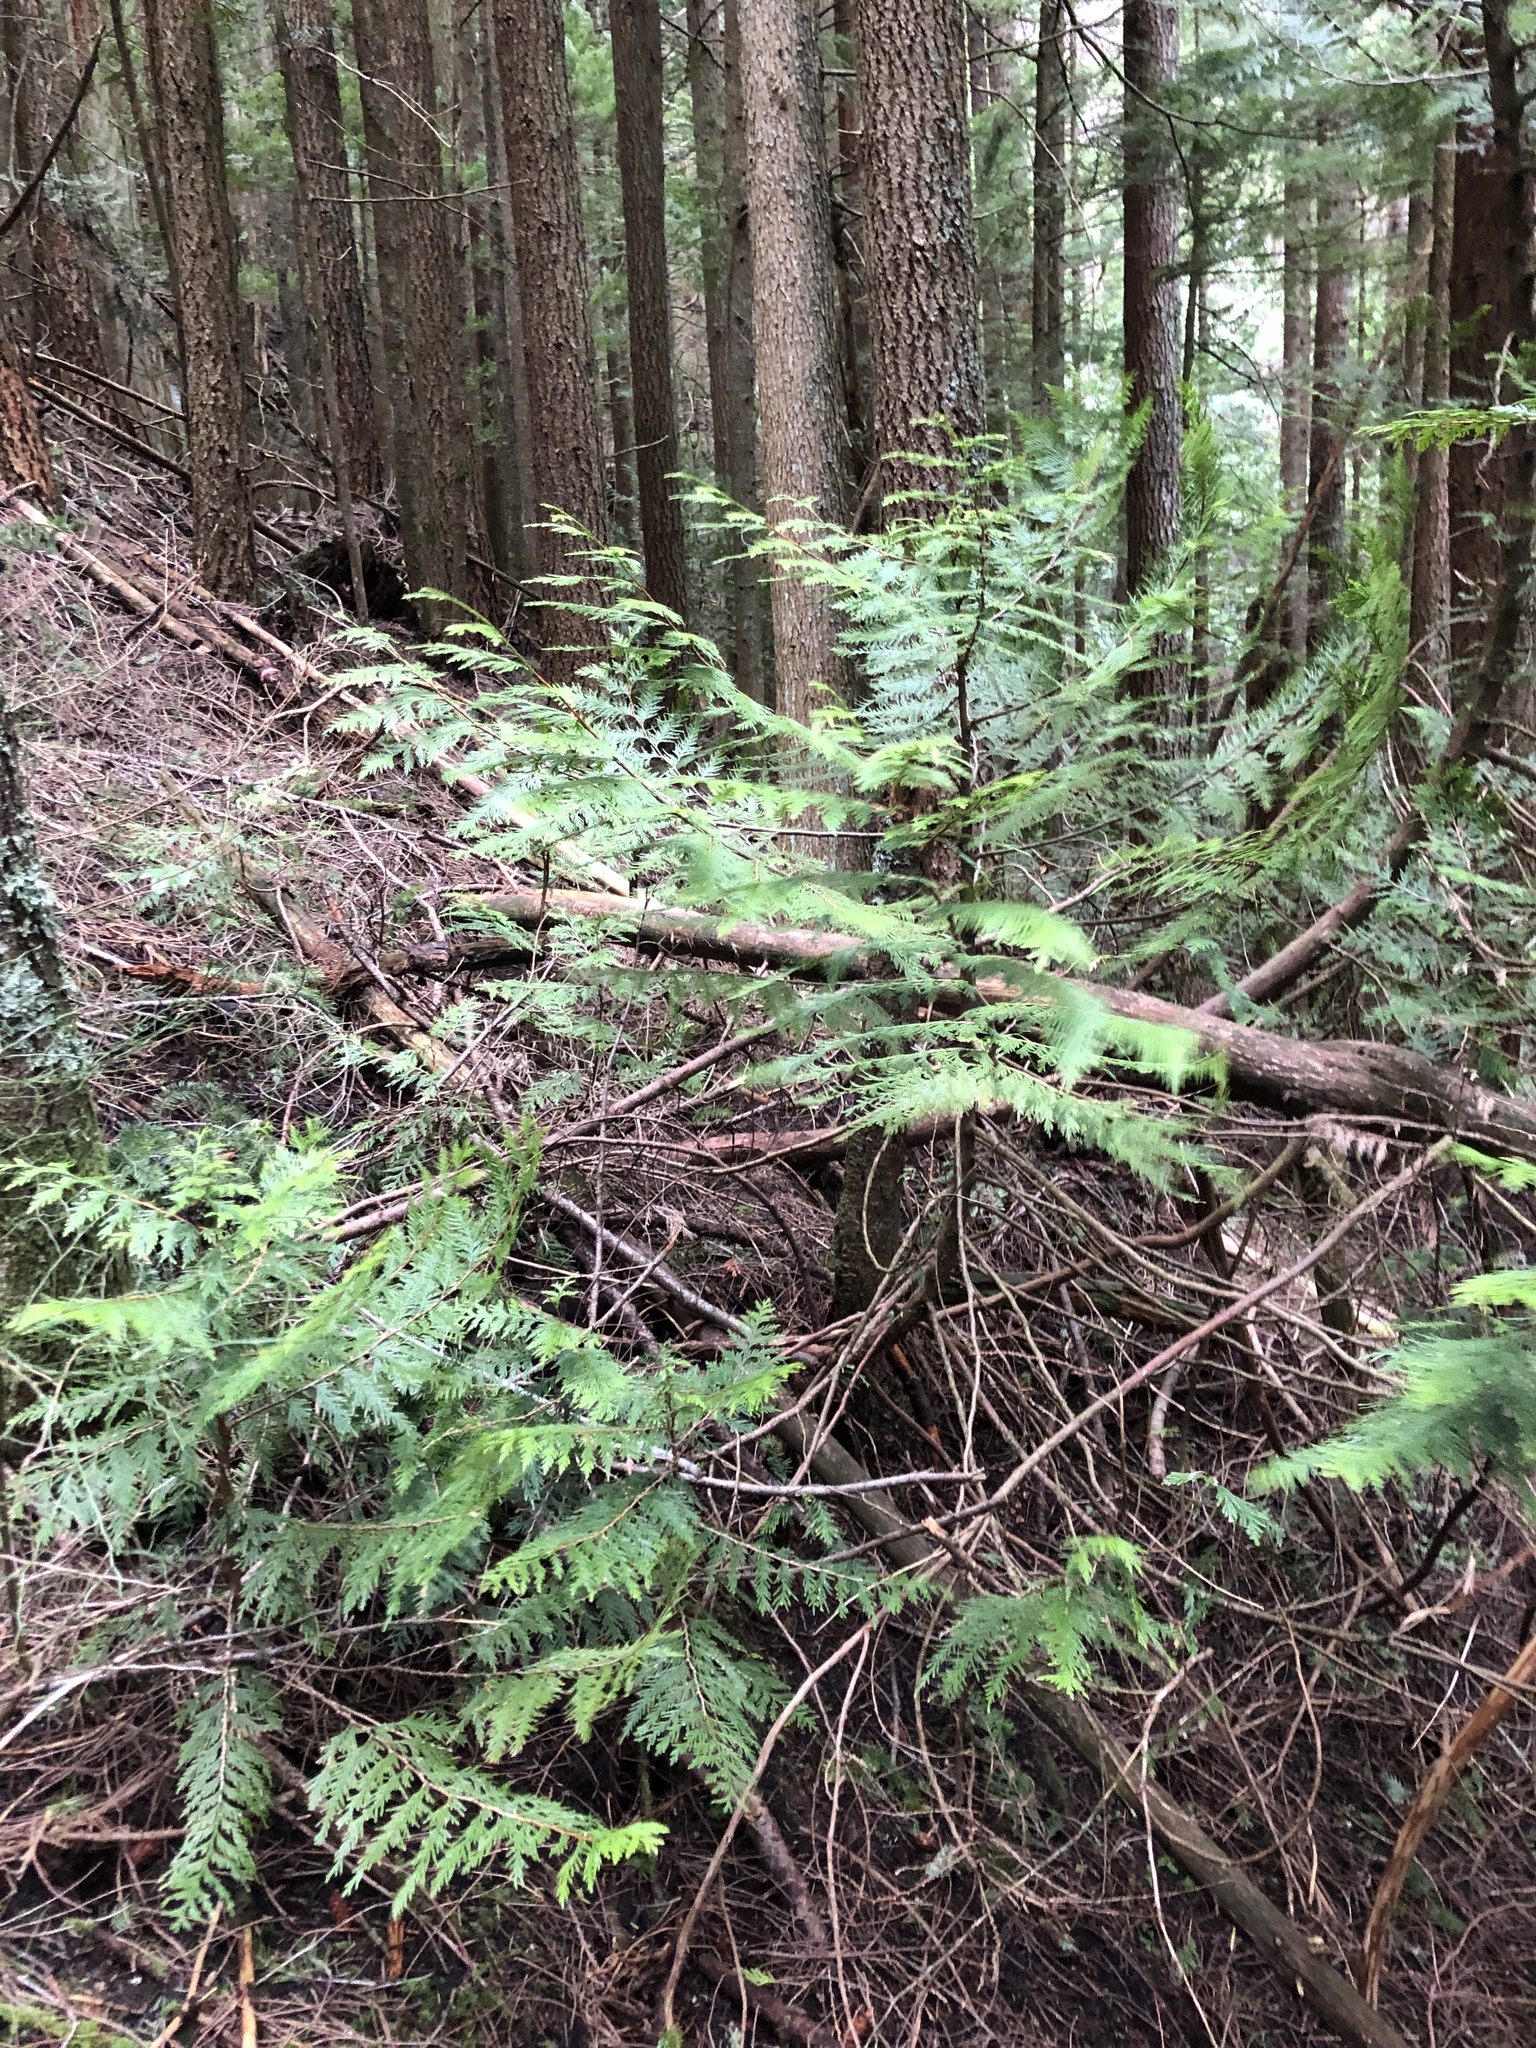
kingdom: Plantae
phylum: Tracheophyta
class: Pinopsida
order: Pinales
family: Cupressaceae
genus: Thuja
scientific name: Thuja plicata
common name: Western red-cedar
